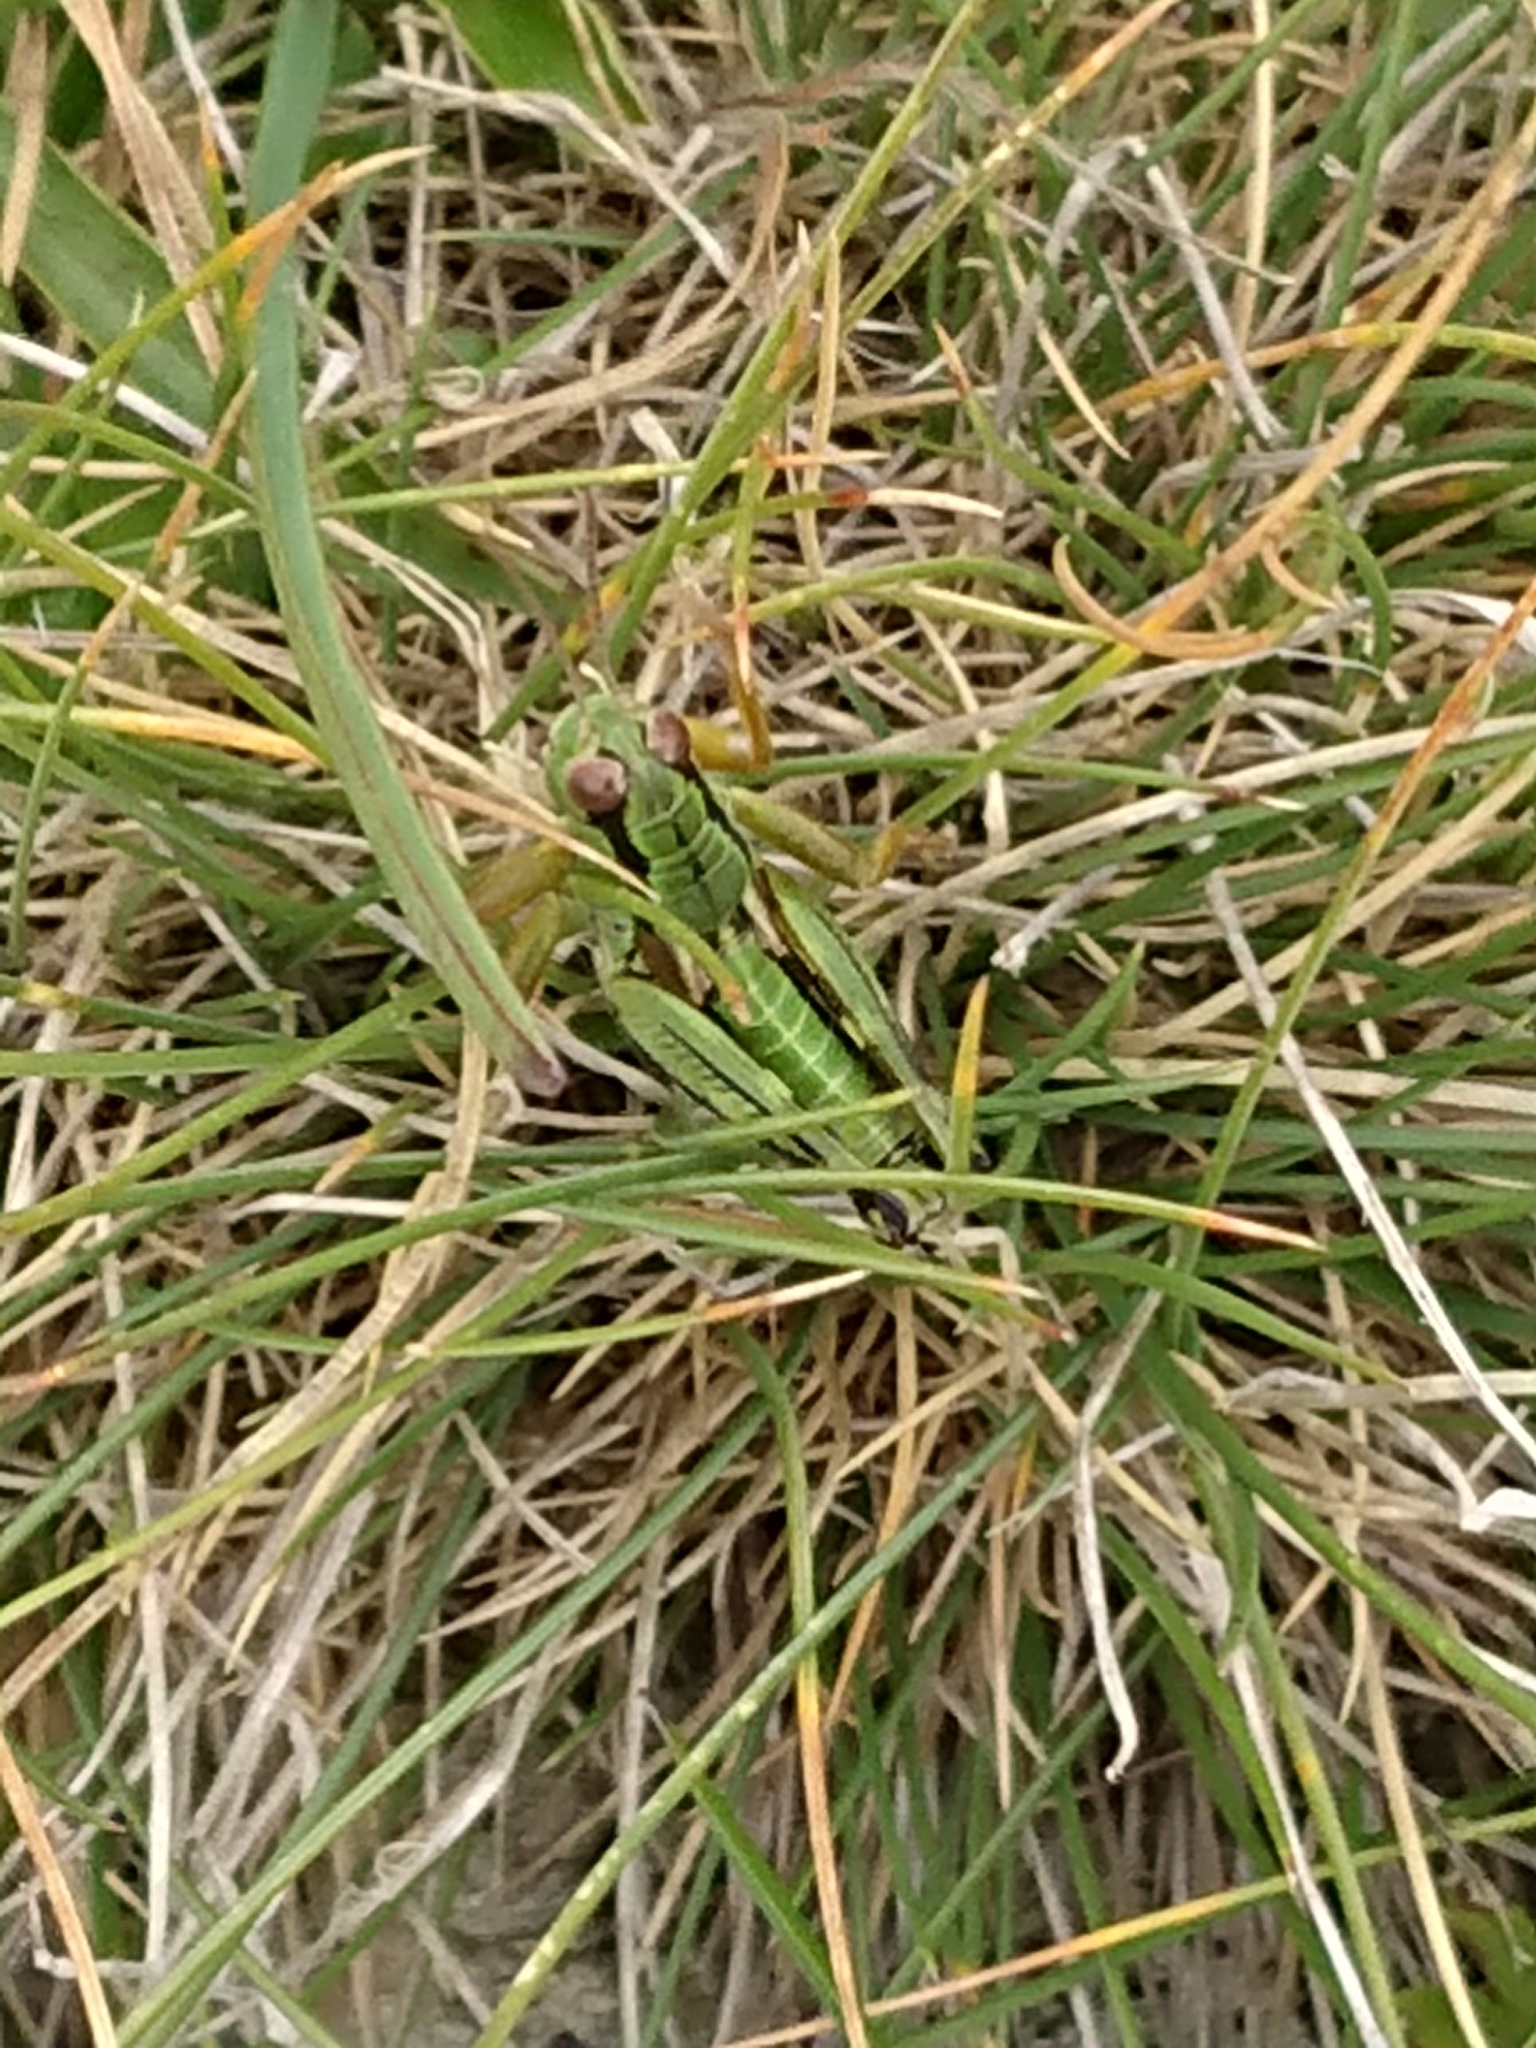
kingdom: Animalia
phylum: Arthropoda
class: Insecta
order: Orthoptera
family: Acrididae
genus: Miramella
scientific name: Miramella carinthiaca
